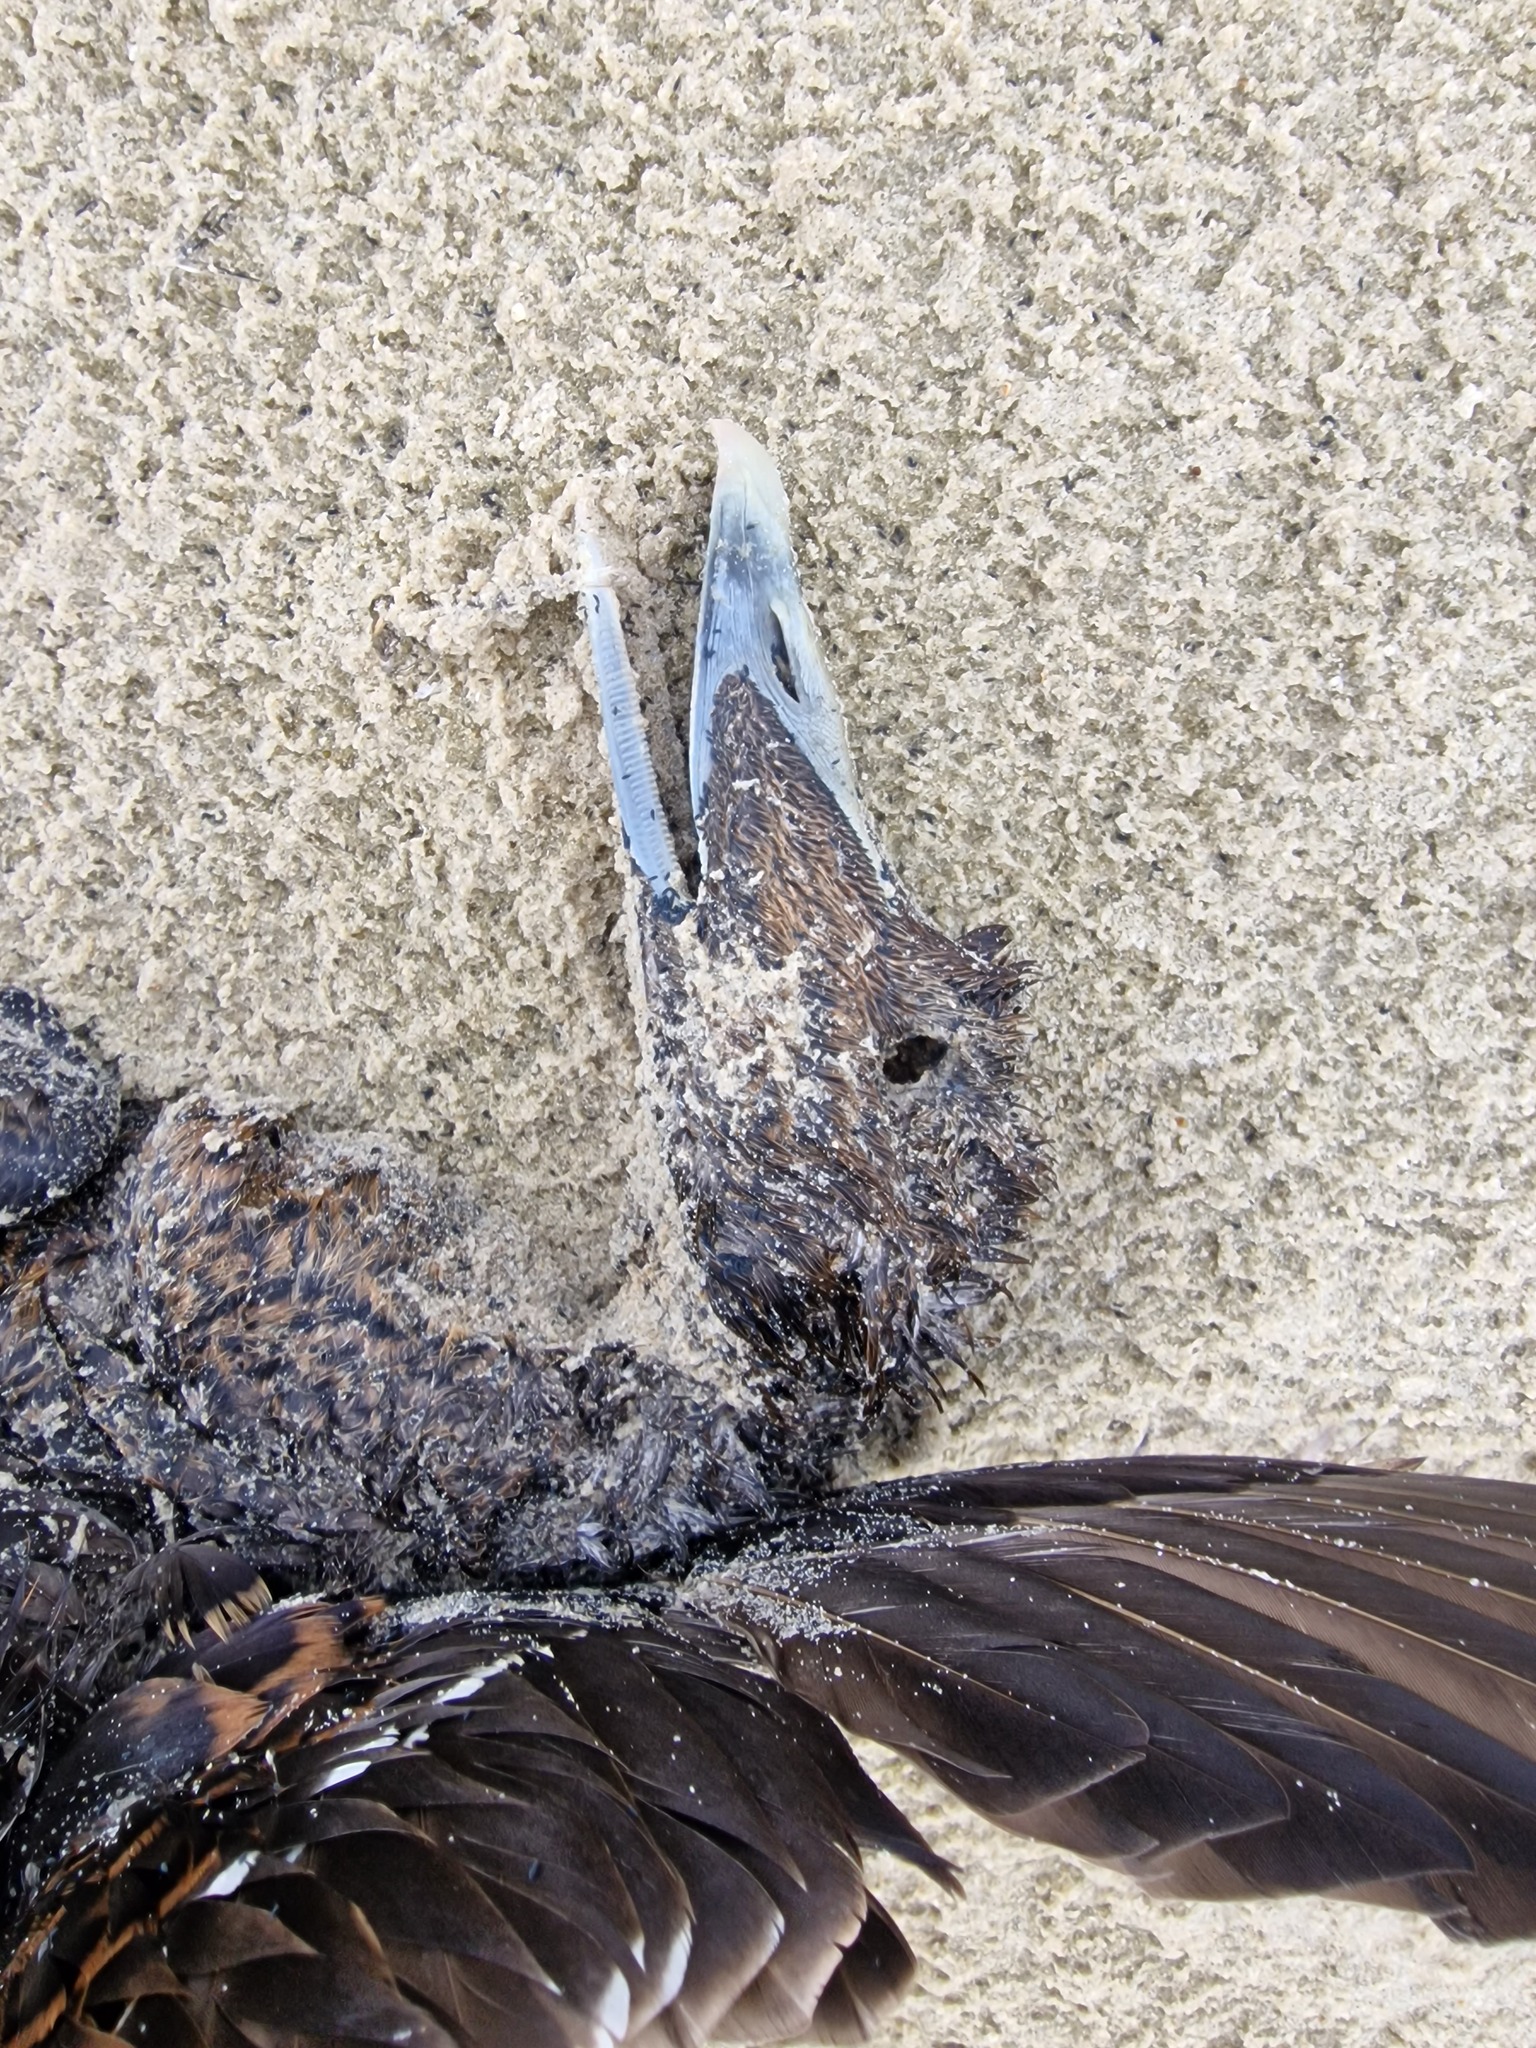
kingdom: Animalia
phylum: Chordata
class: Aves
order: Anseriformes
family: Anatidae
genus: Somateria
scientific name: Somateria mollissima
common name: Common eider
